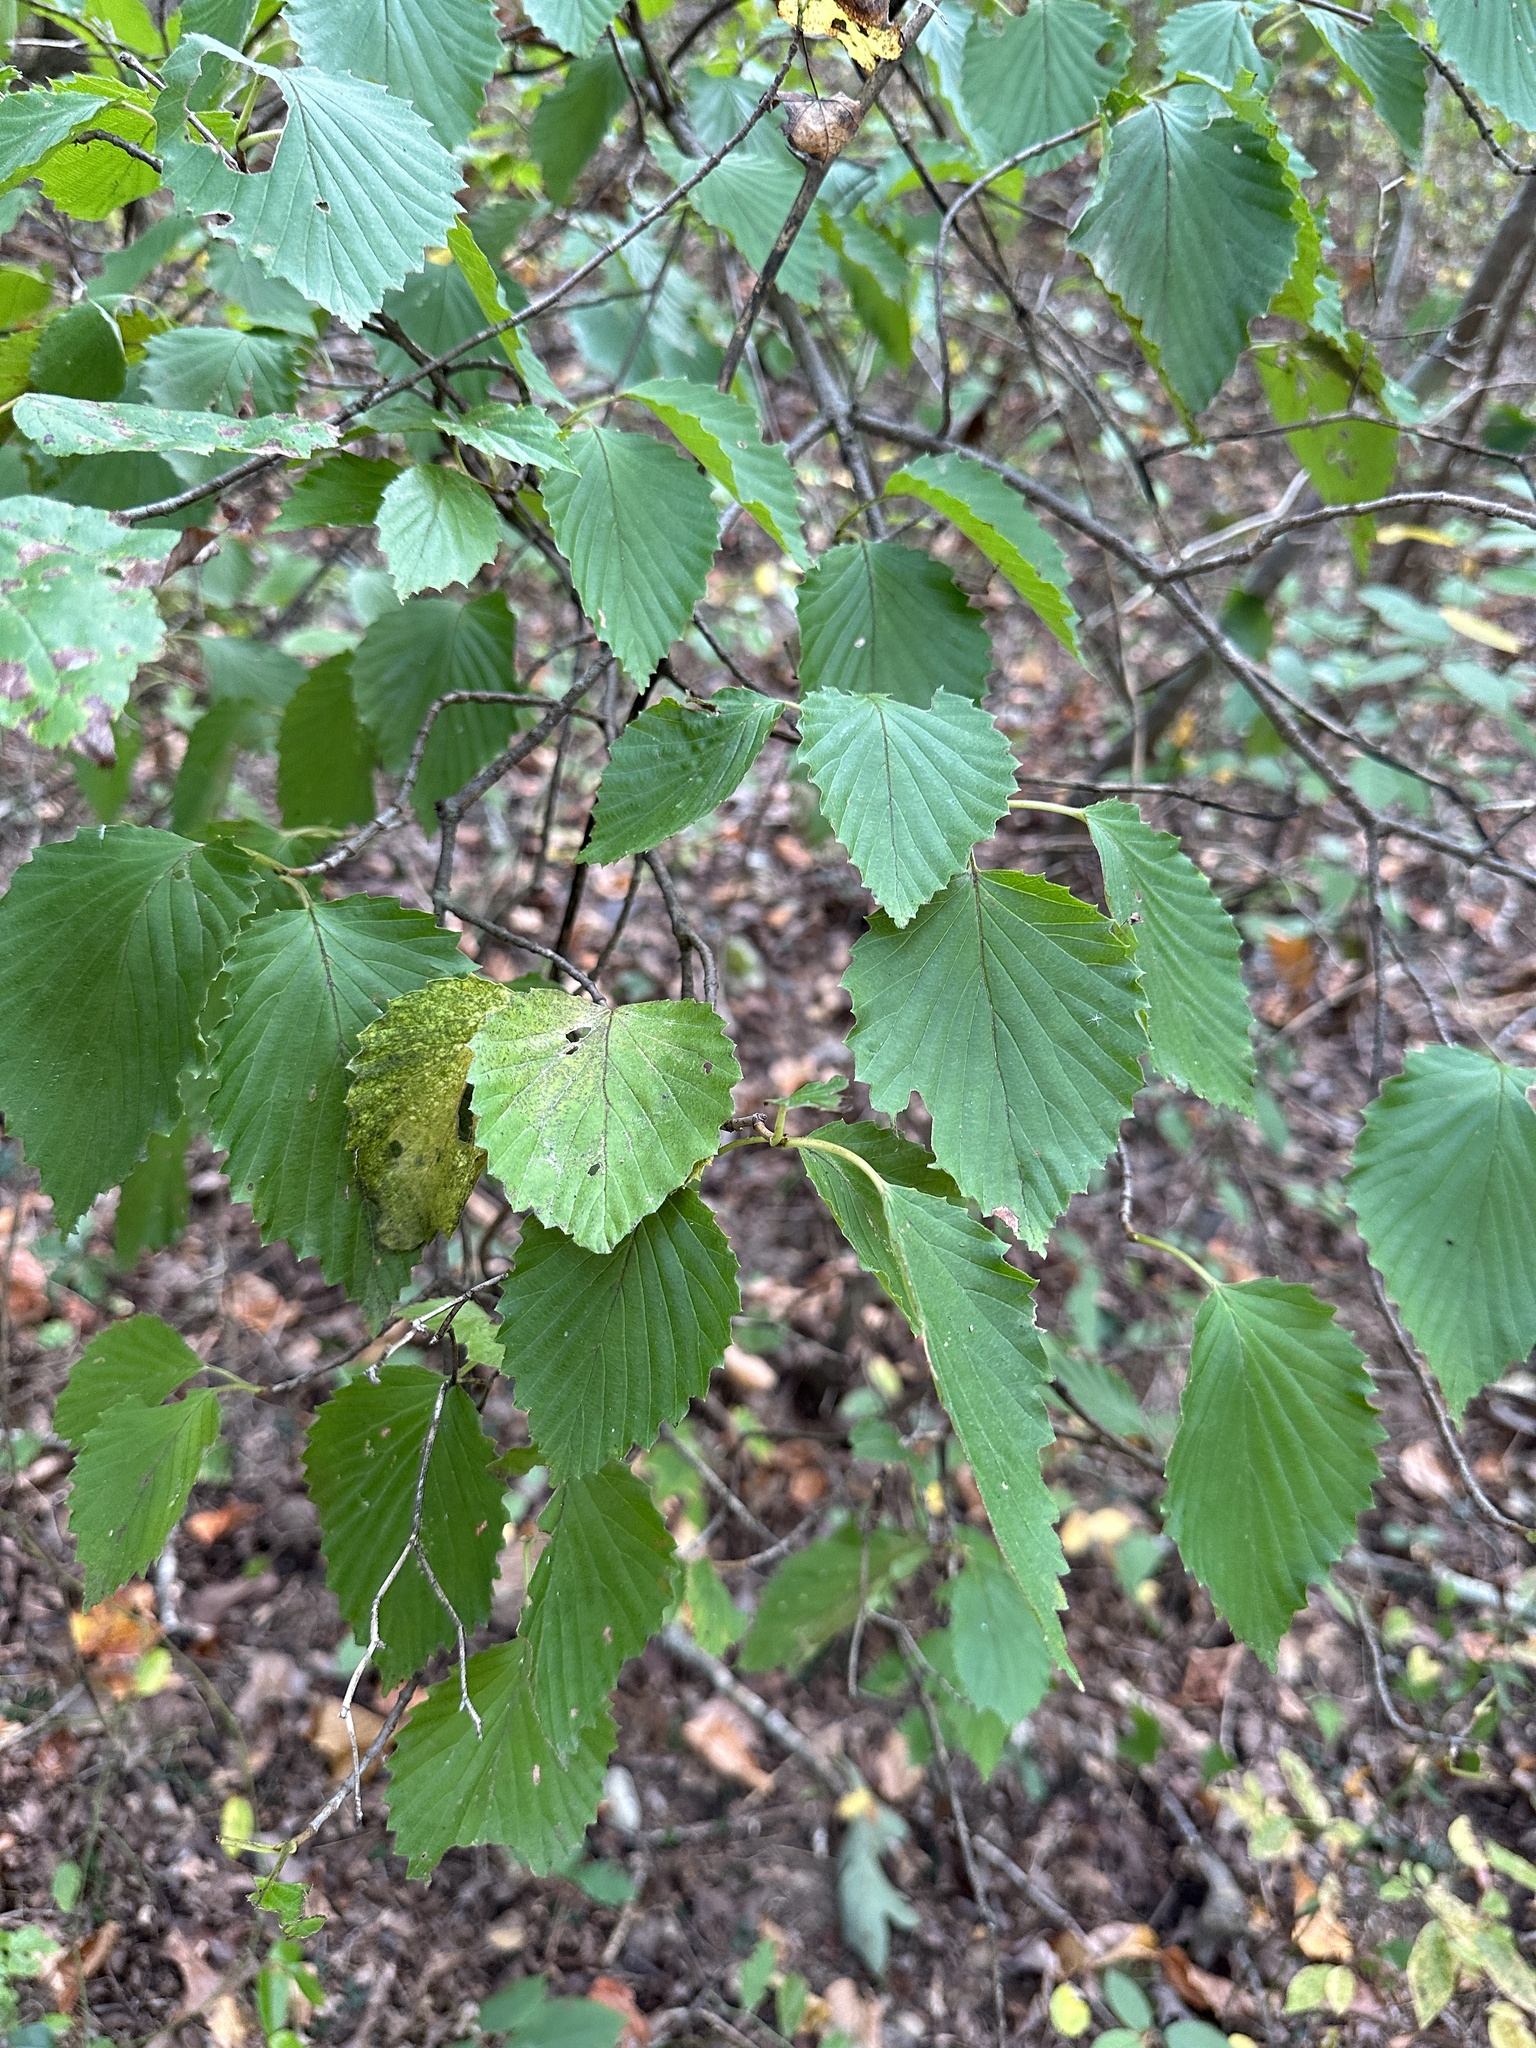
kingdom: Plantae
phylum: Tracheophyta
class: Magnoliopsida
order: Dipsacales
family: Viburnaceae
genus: Viburnum
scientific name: Viburnum alabamense
